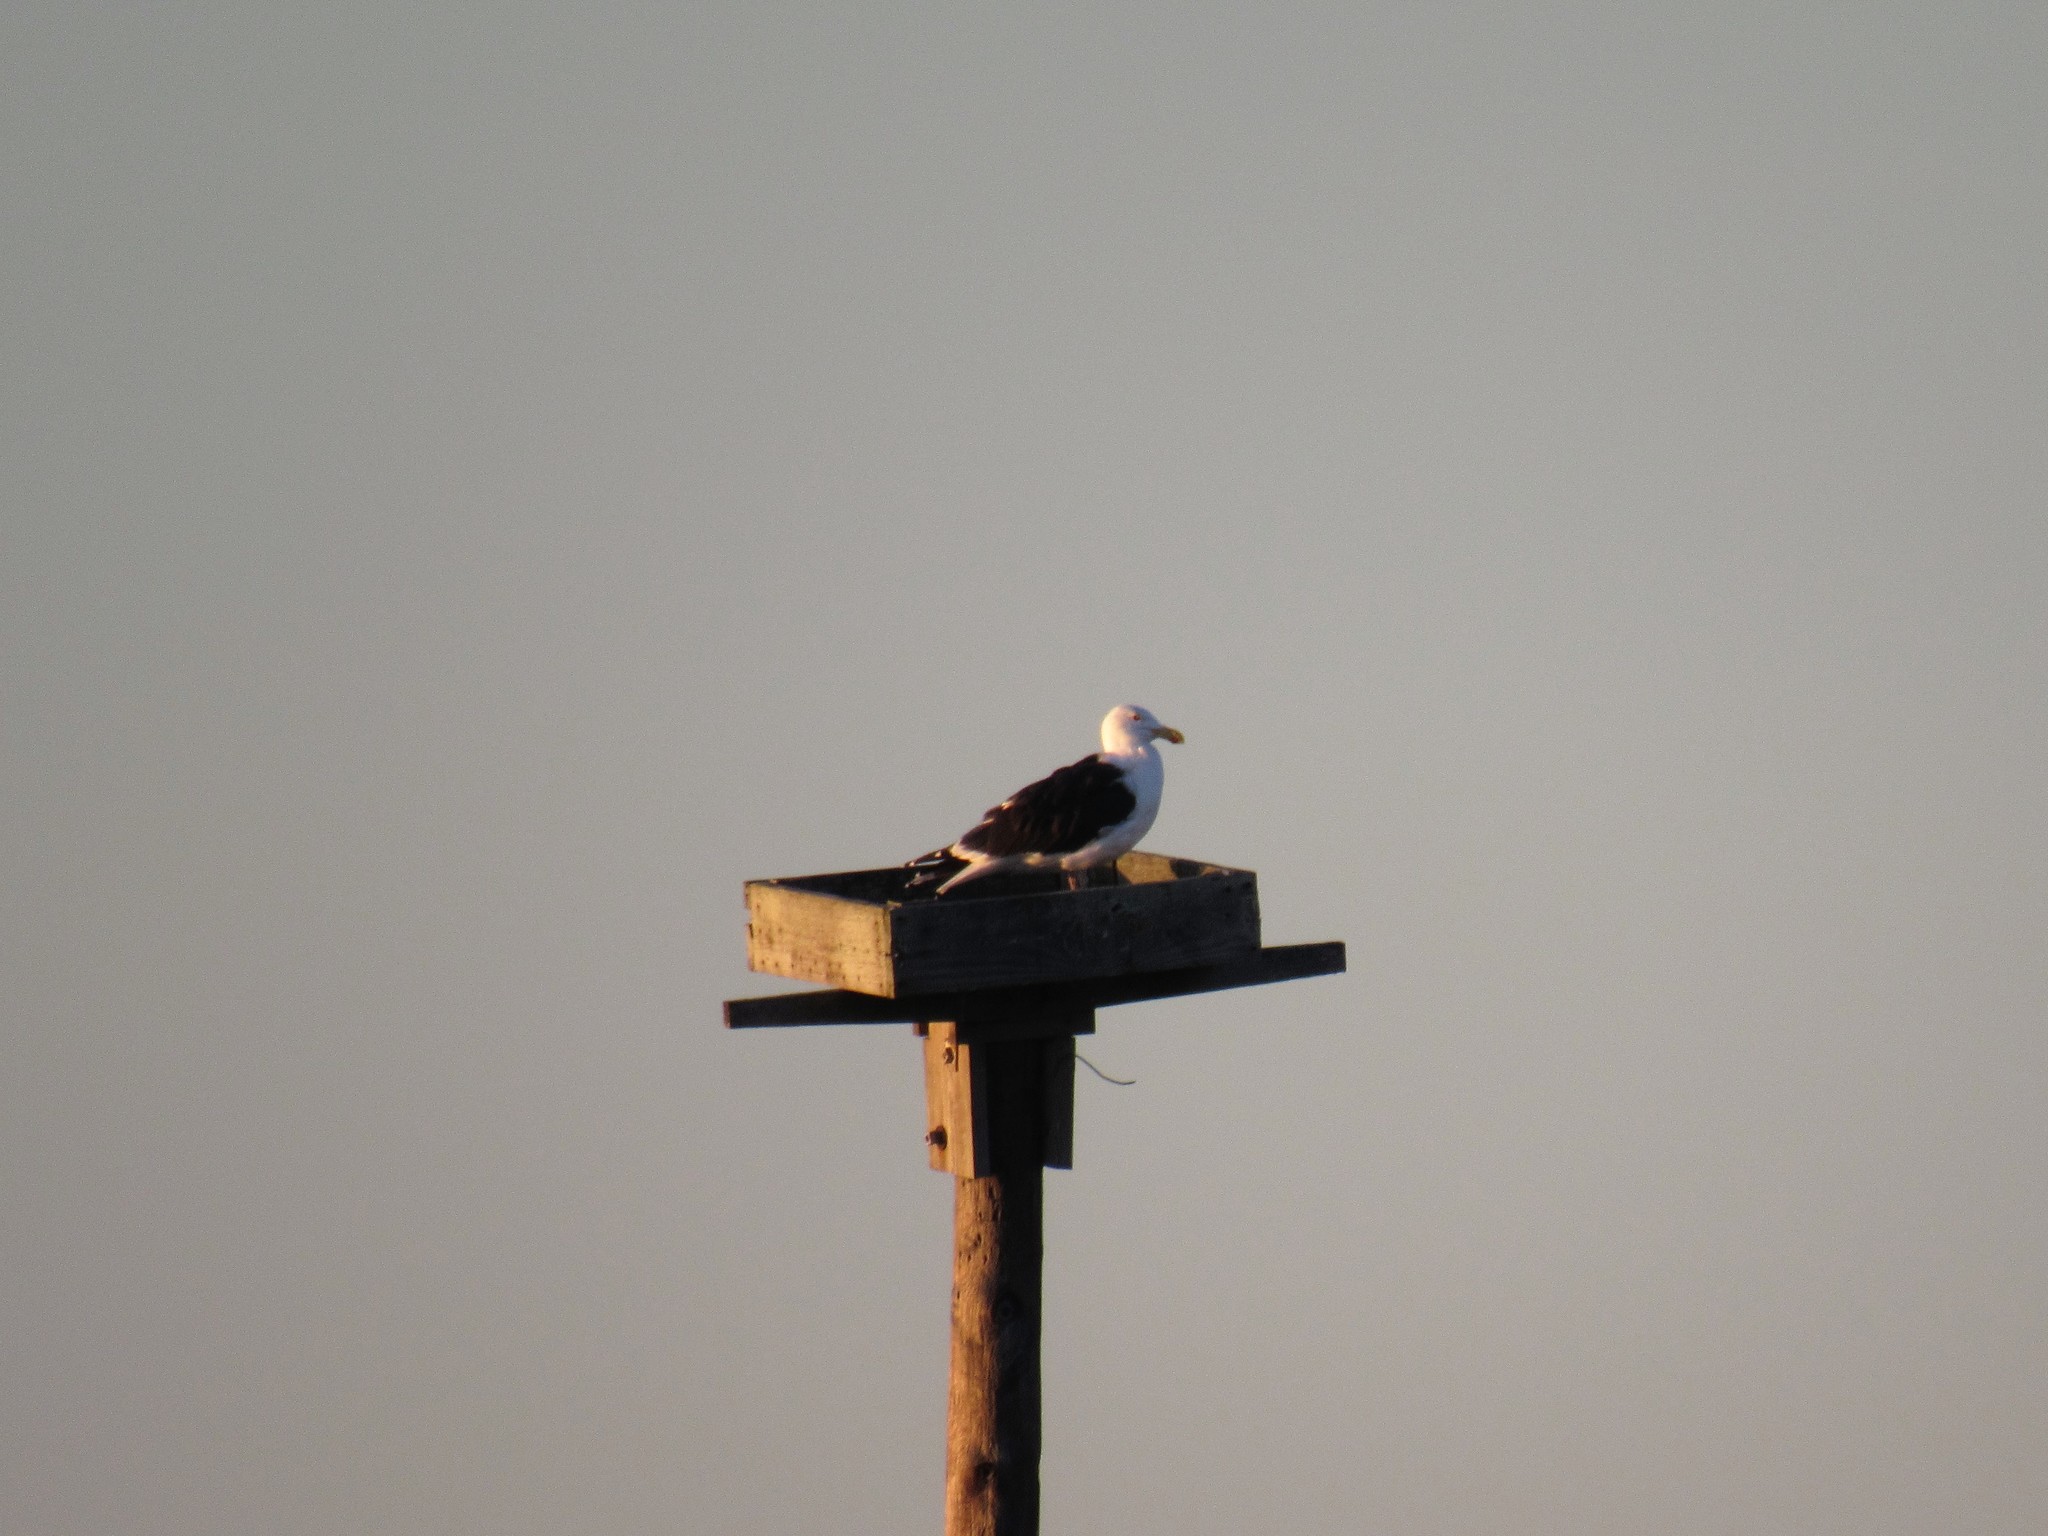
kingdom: Animalia
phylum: Chordata
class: Aves
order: Charadriiformes
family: Laridae
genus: Larus
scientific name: Larus marinus
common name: Great black-backed gull
